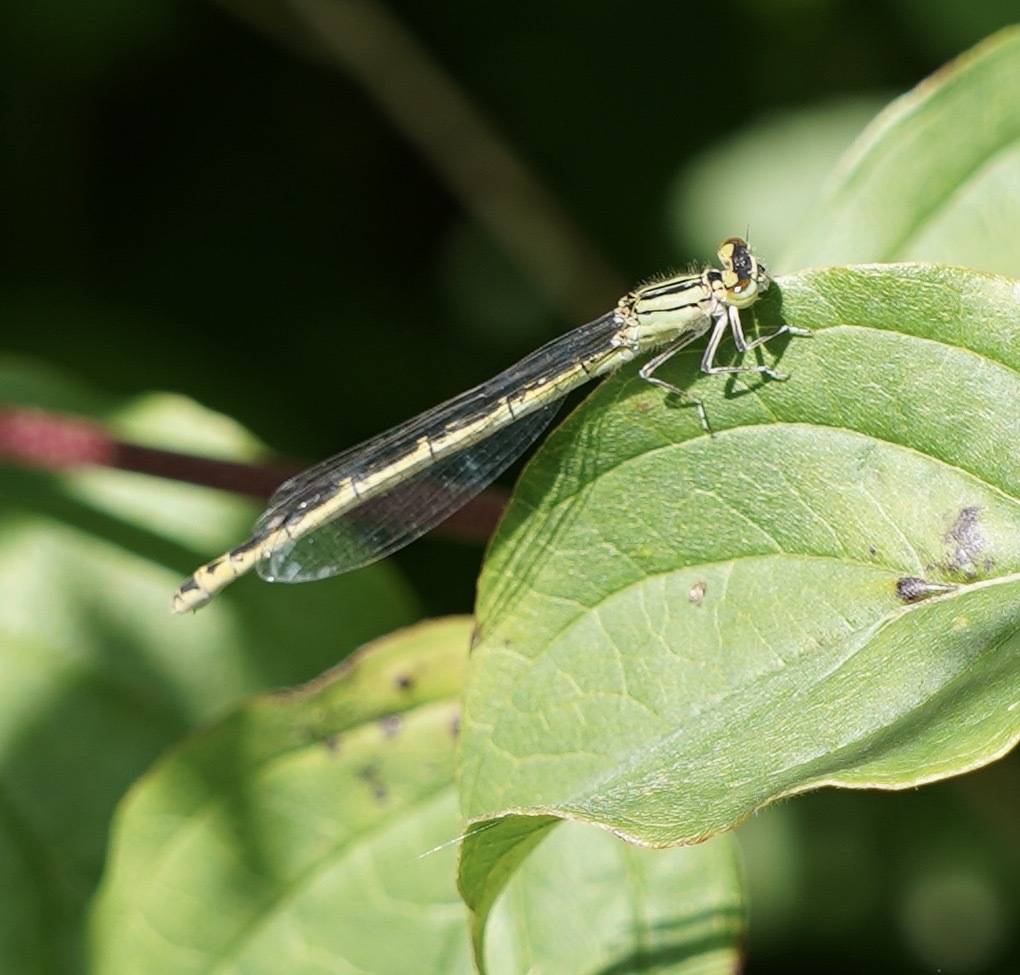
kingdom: Animalia
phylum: Arthropoda
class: Insecta
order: Odonata
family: Coenagrionidae
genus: Enallagma
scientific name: Enallagma cyathigerum
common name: Common blue damselfly
